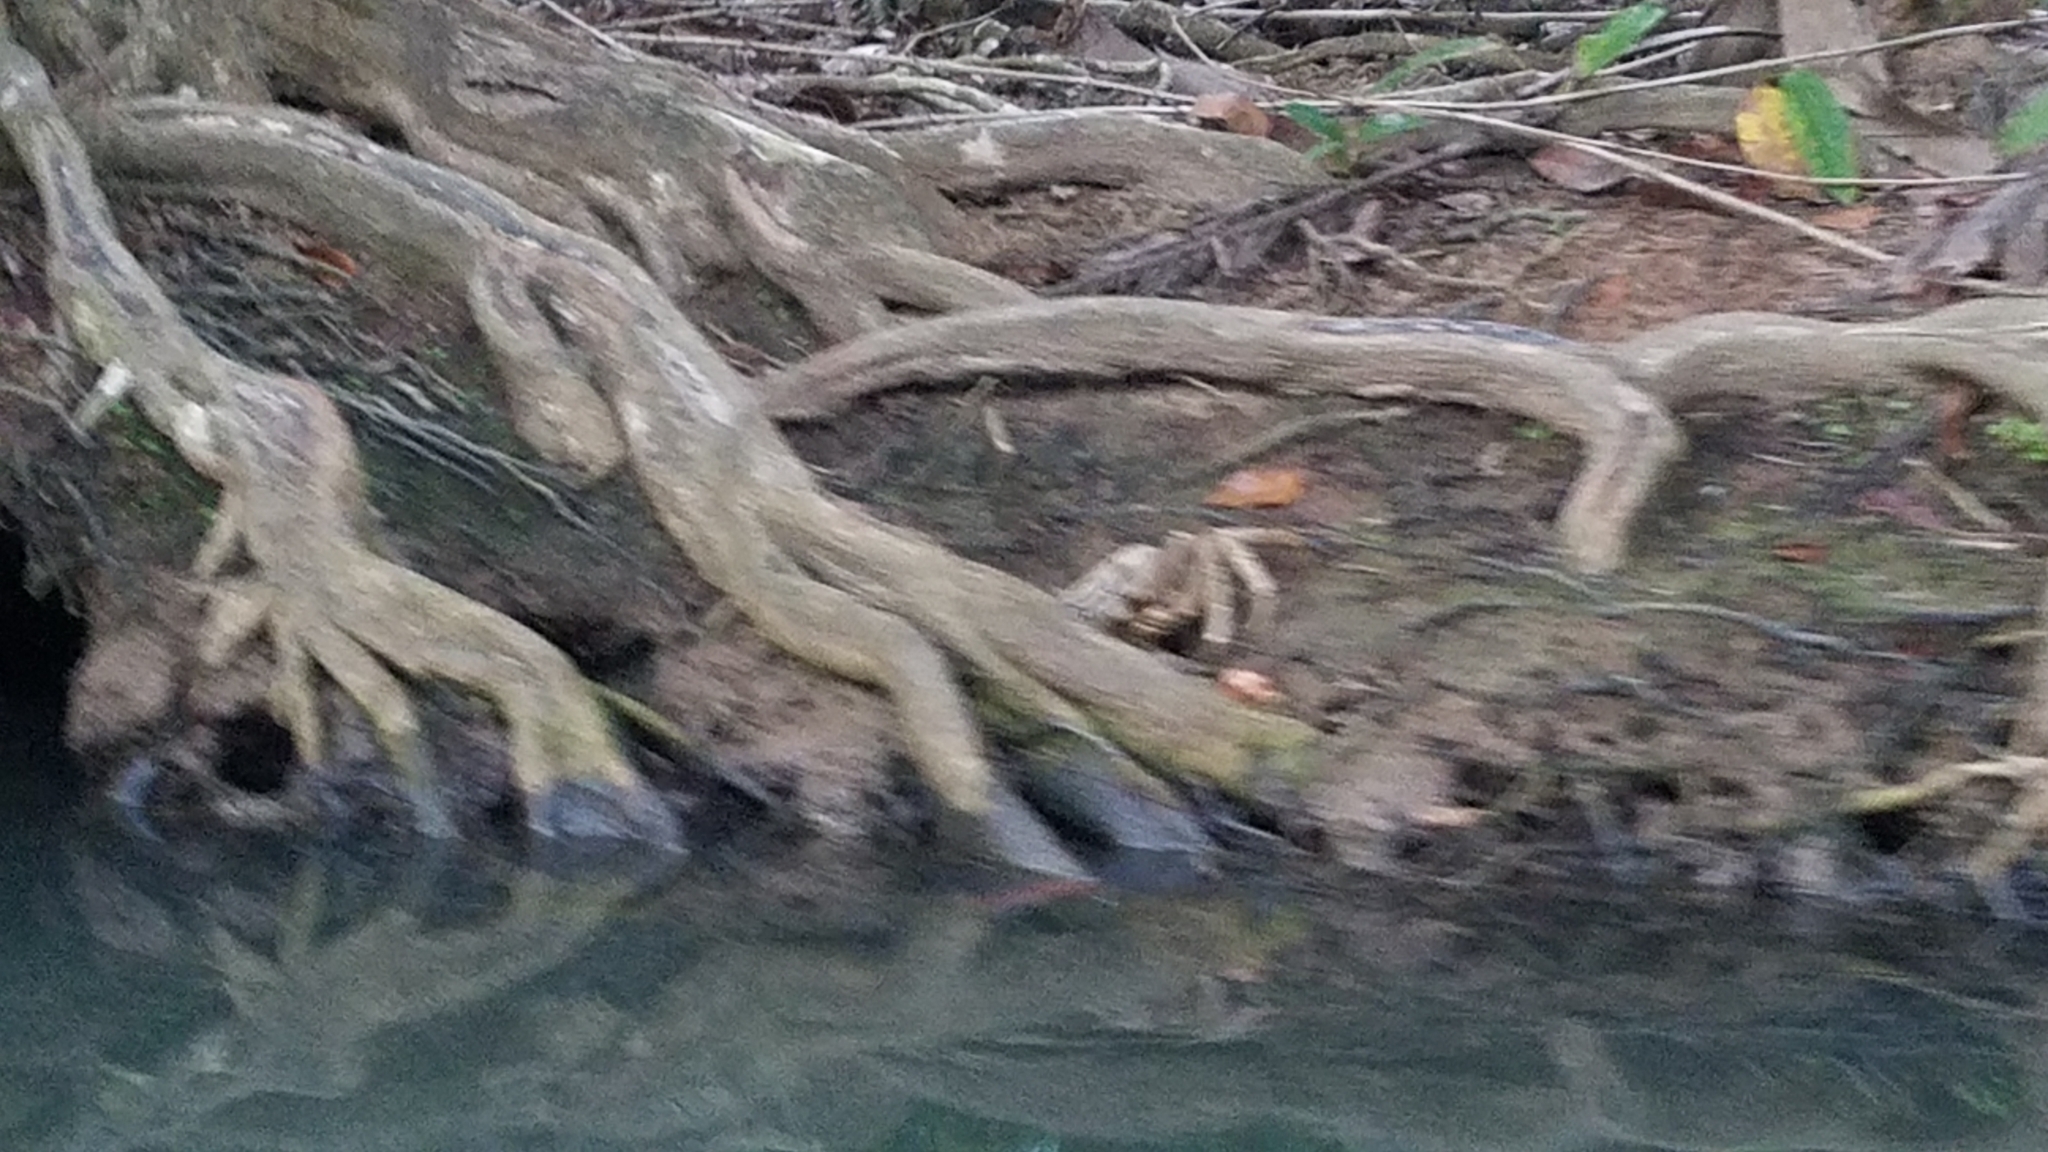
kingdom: Animalia
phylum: Arthropoda
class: Malacostraca
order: Decapoda
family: Gecarcinidae
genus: Cardisoma
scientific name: Cardisoma guanhumi
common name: Great land crab
